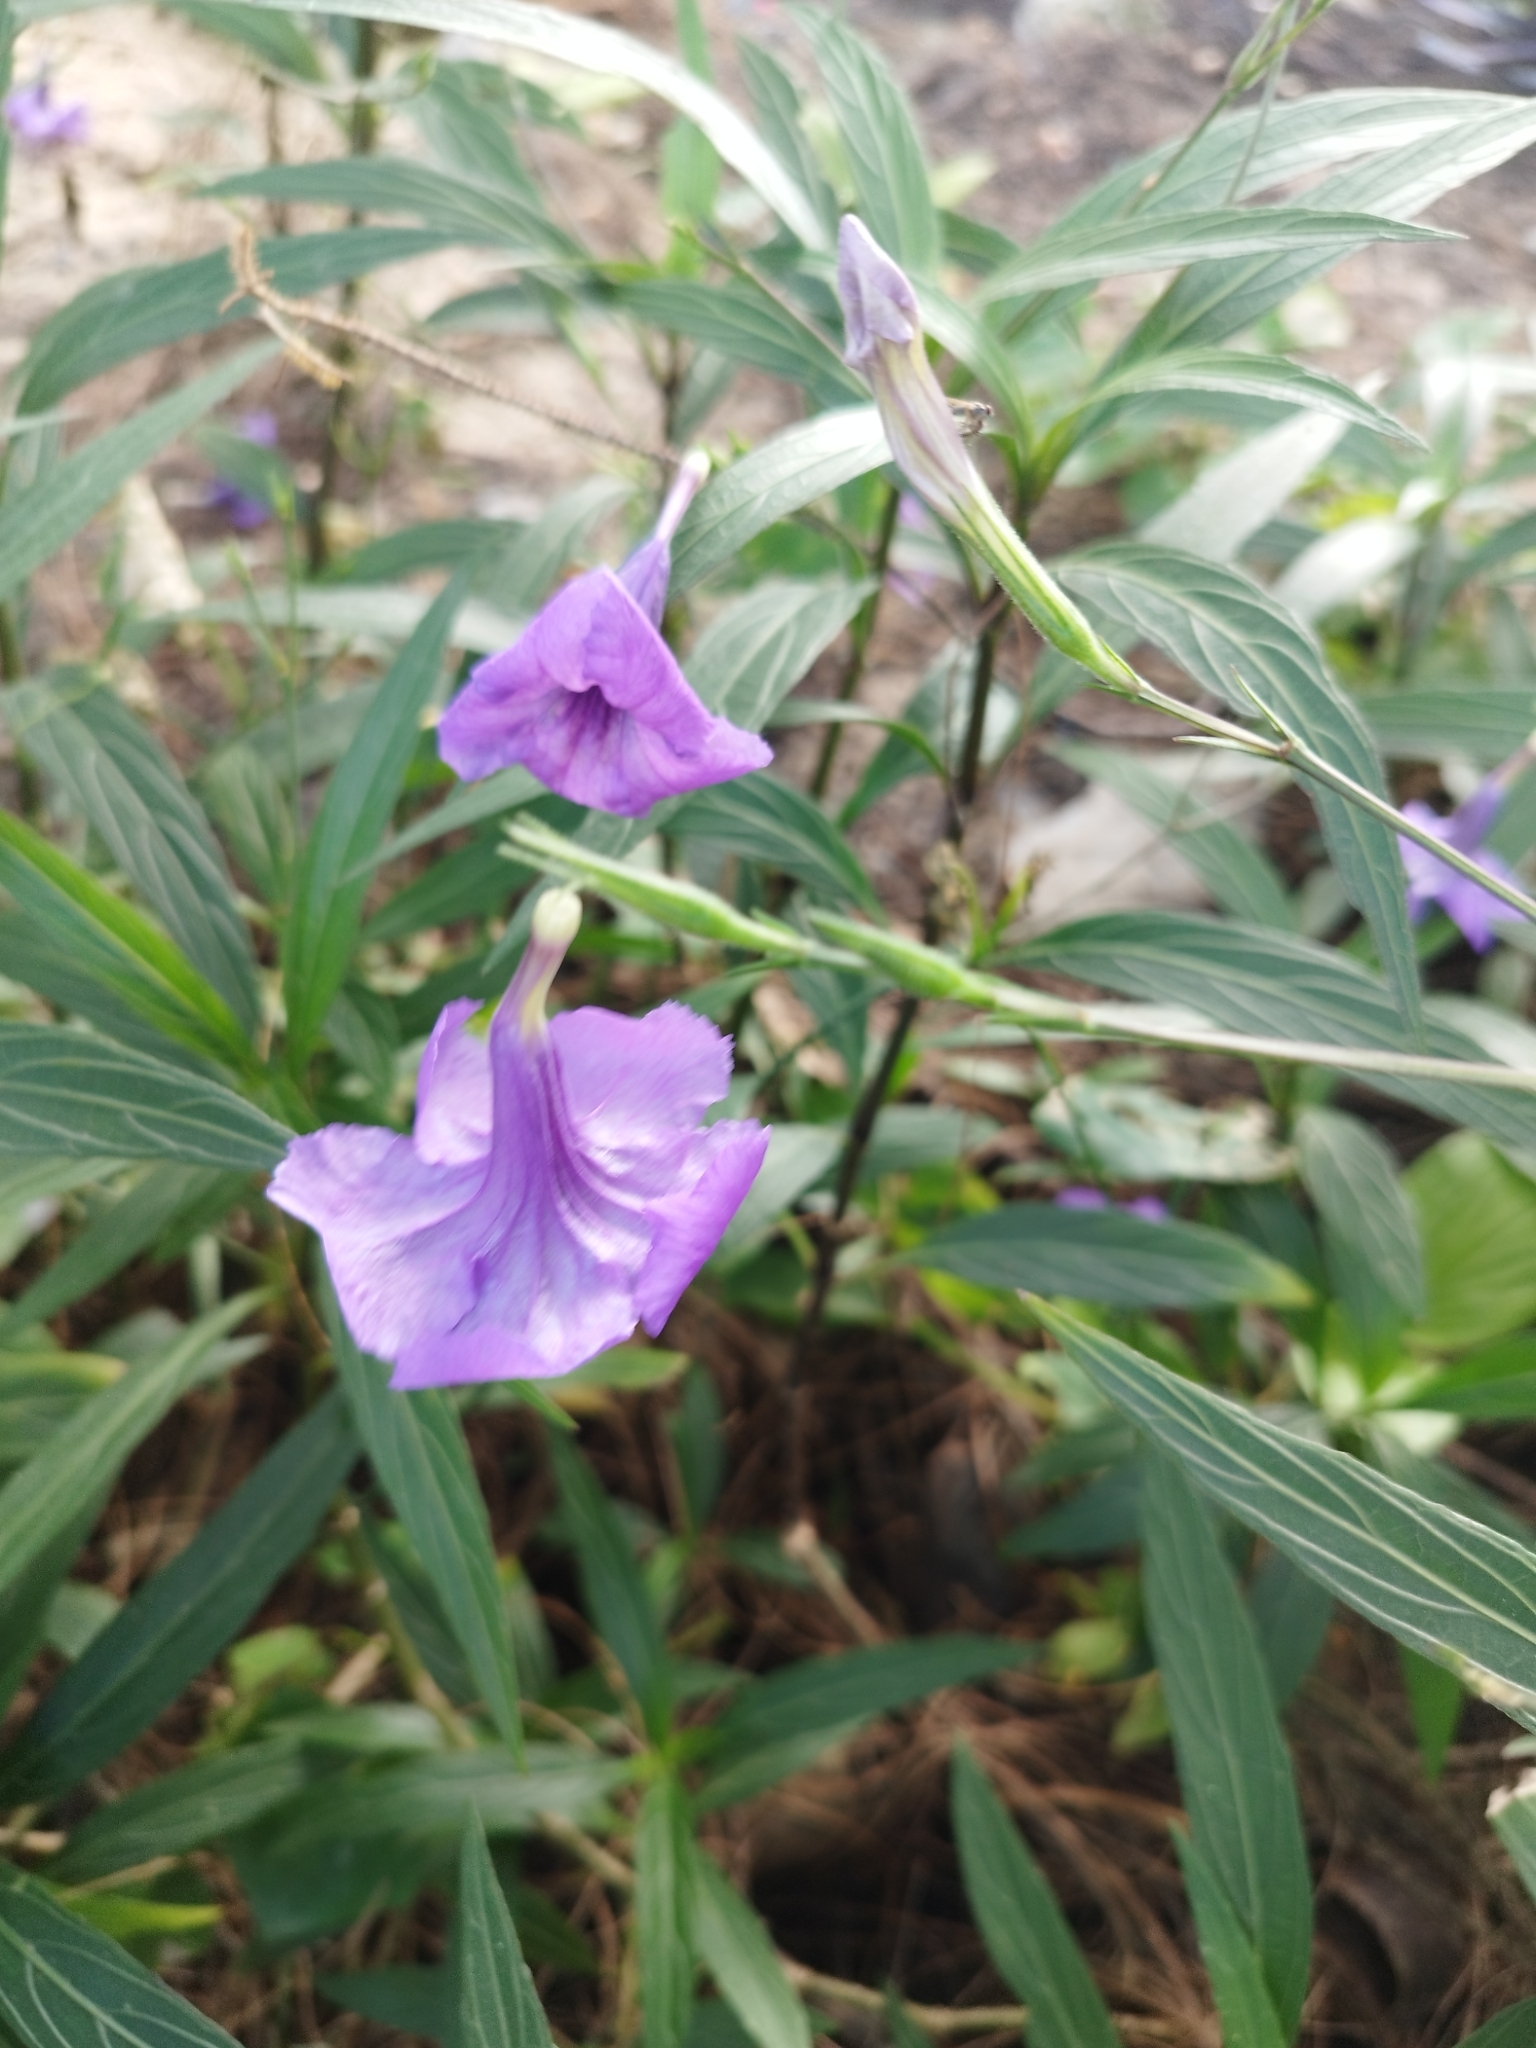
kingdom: Plantae
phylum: Tracheophyta
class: Magnoliopsida
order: Lamiales
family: Acanthaceae
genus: Ruellia
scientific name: Ruellia simplex
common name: Softseed wild petunia
